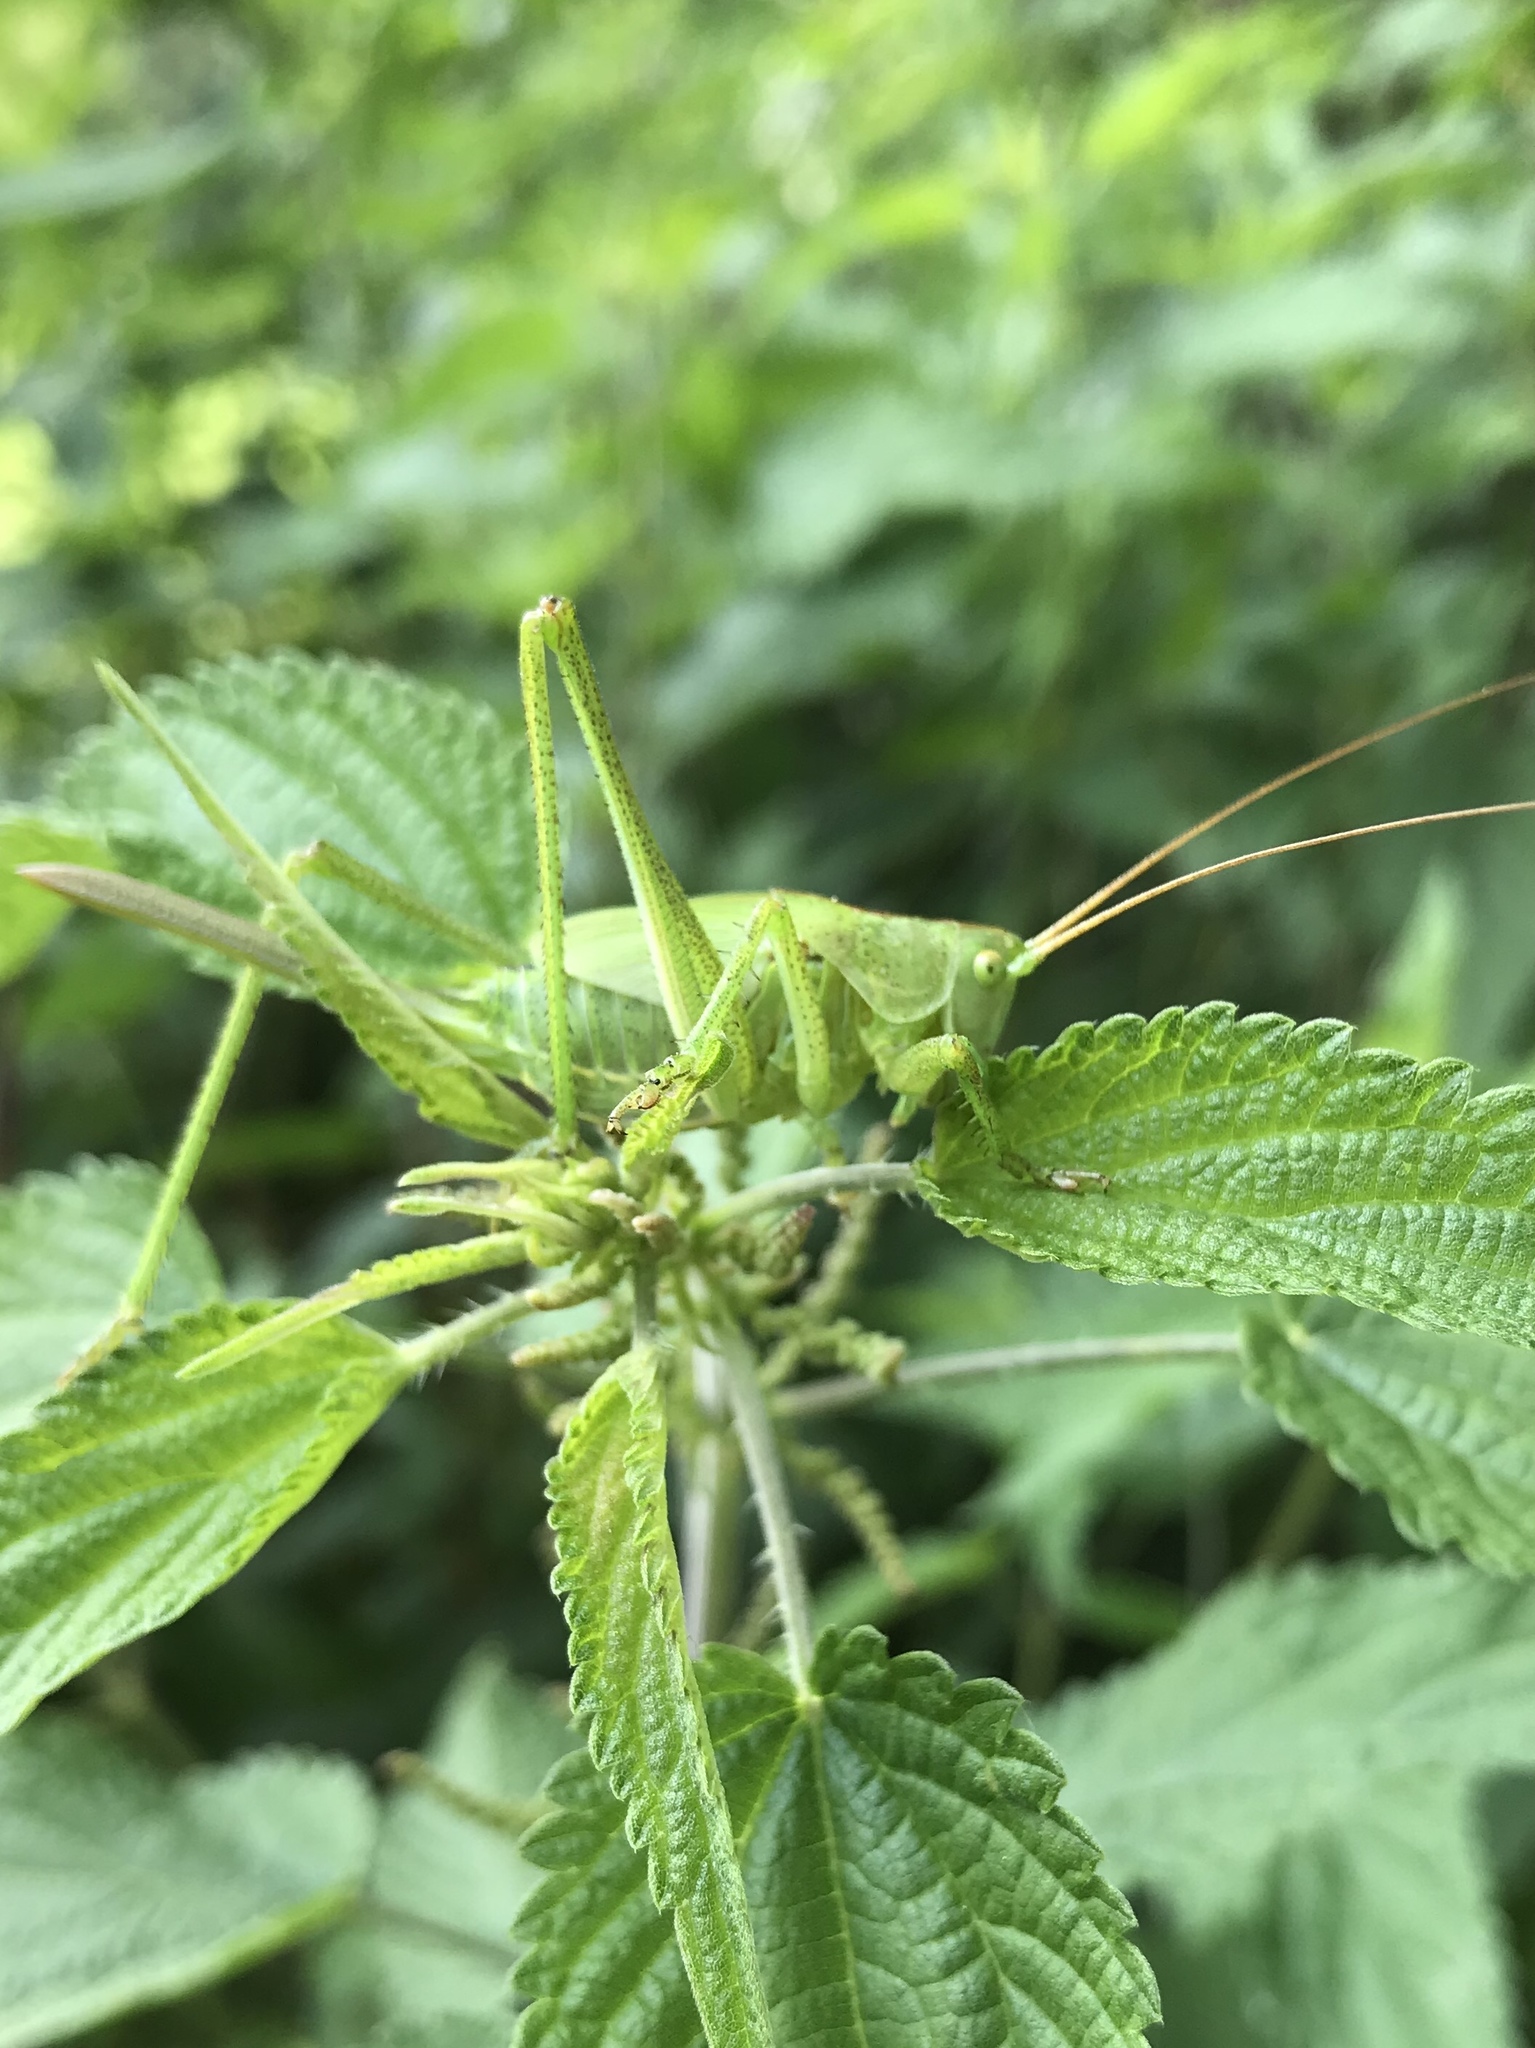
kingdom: Animalia
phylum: Arthropoda
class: Insecta
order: Orthoptera
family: Tettigoniidae
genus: Tettigonia
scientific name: Tettigonia viridissima
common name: Great green bush-cricket
